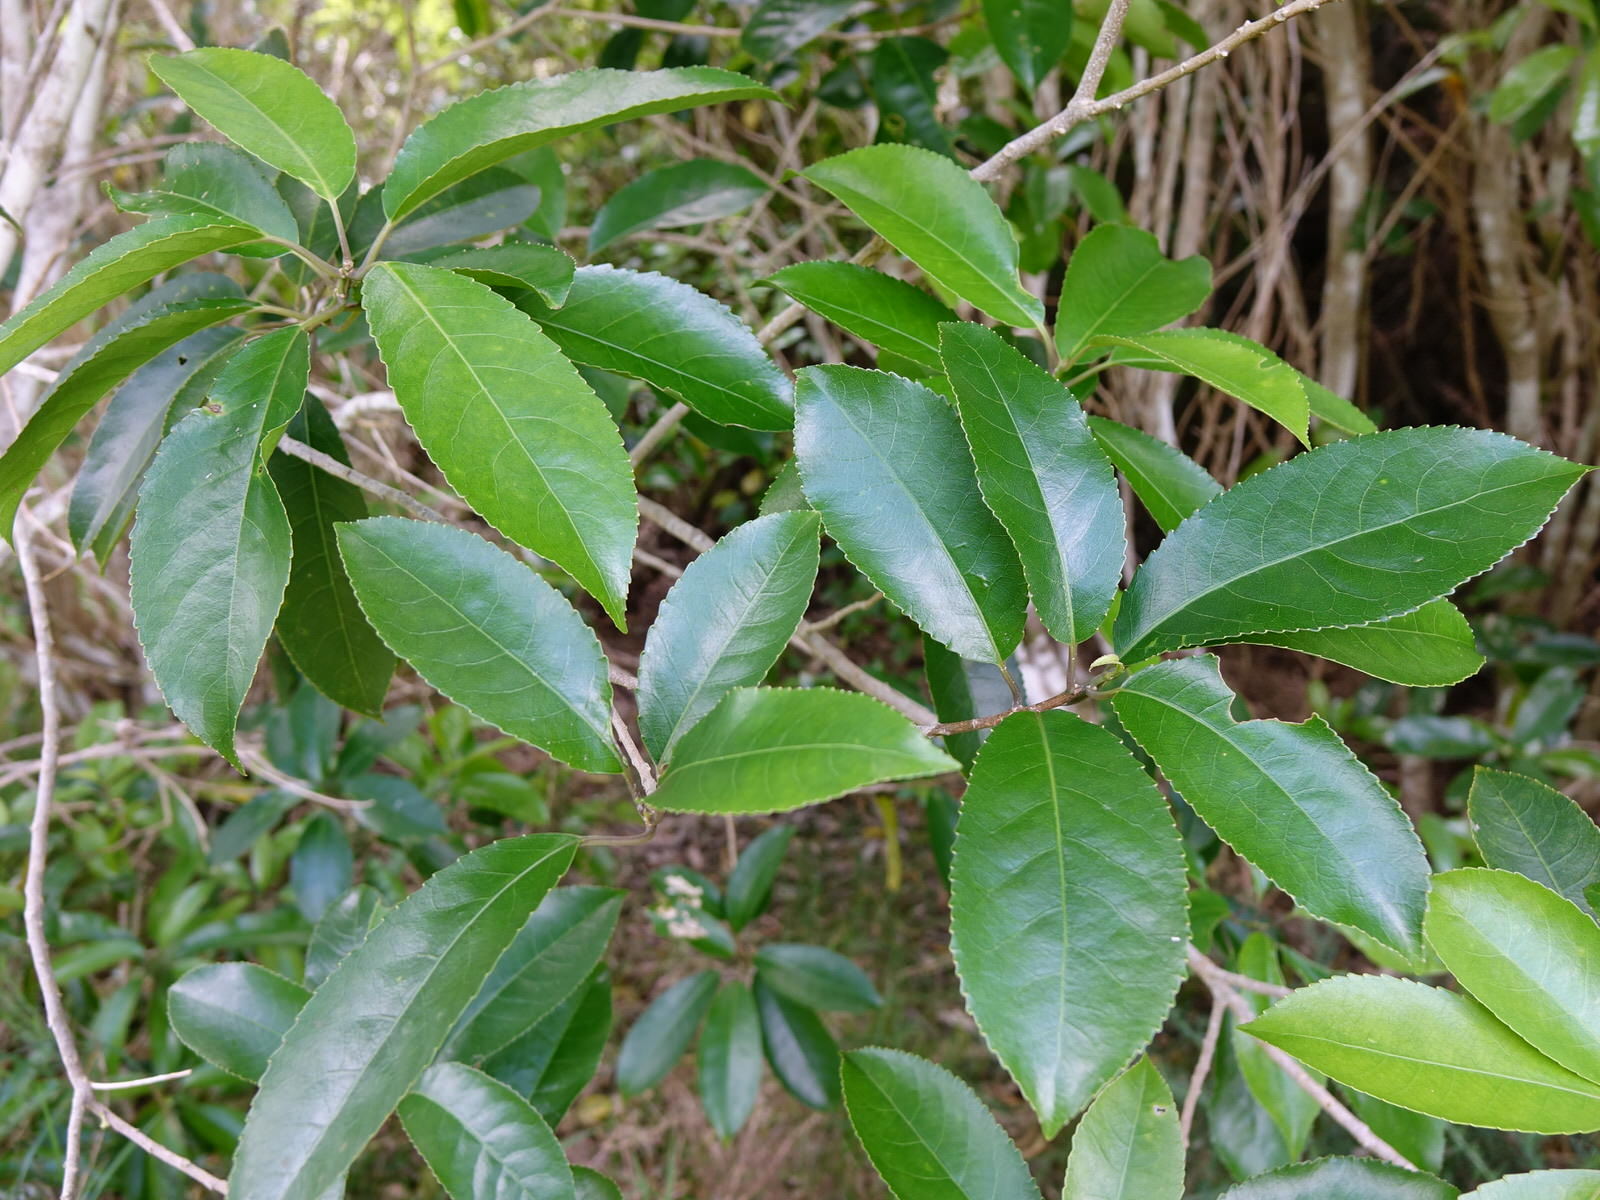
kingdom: Plantae
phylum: Tracheophyta
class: Magnoliopsida
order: Malpighiales
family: Violaceae
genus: Melicytus
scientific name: Melicytus ramiflorus
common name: Mahoe
